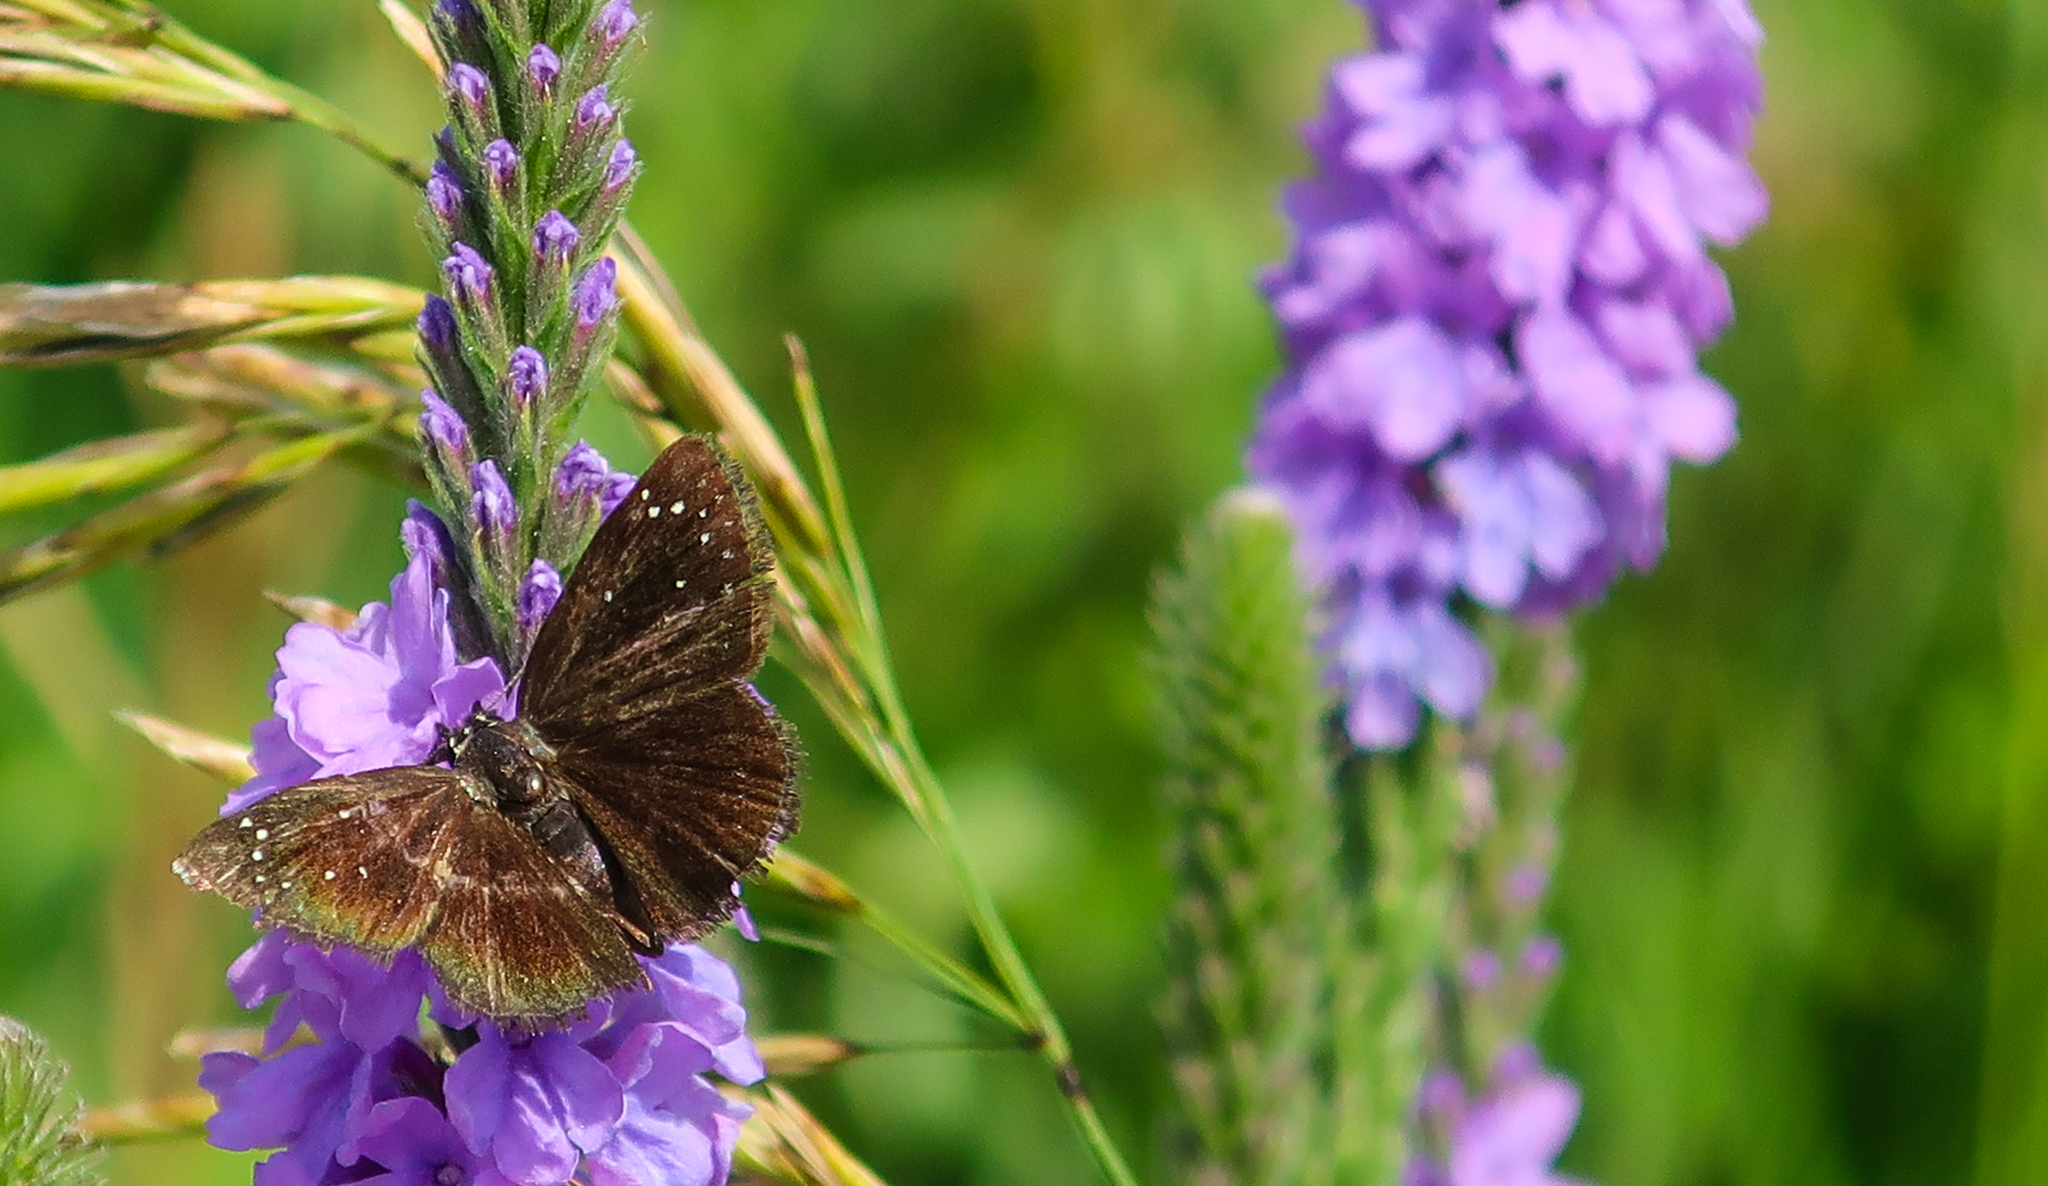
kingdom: Animalia
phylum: Arthropoda
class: Insecta
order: Lepidoptera
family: Hesperiidae
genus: Pholisora
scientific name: Pholisora catullus
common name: Common sootywing
